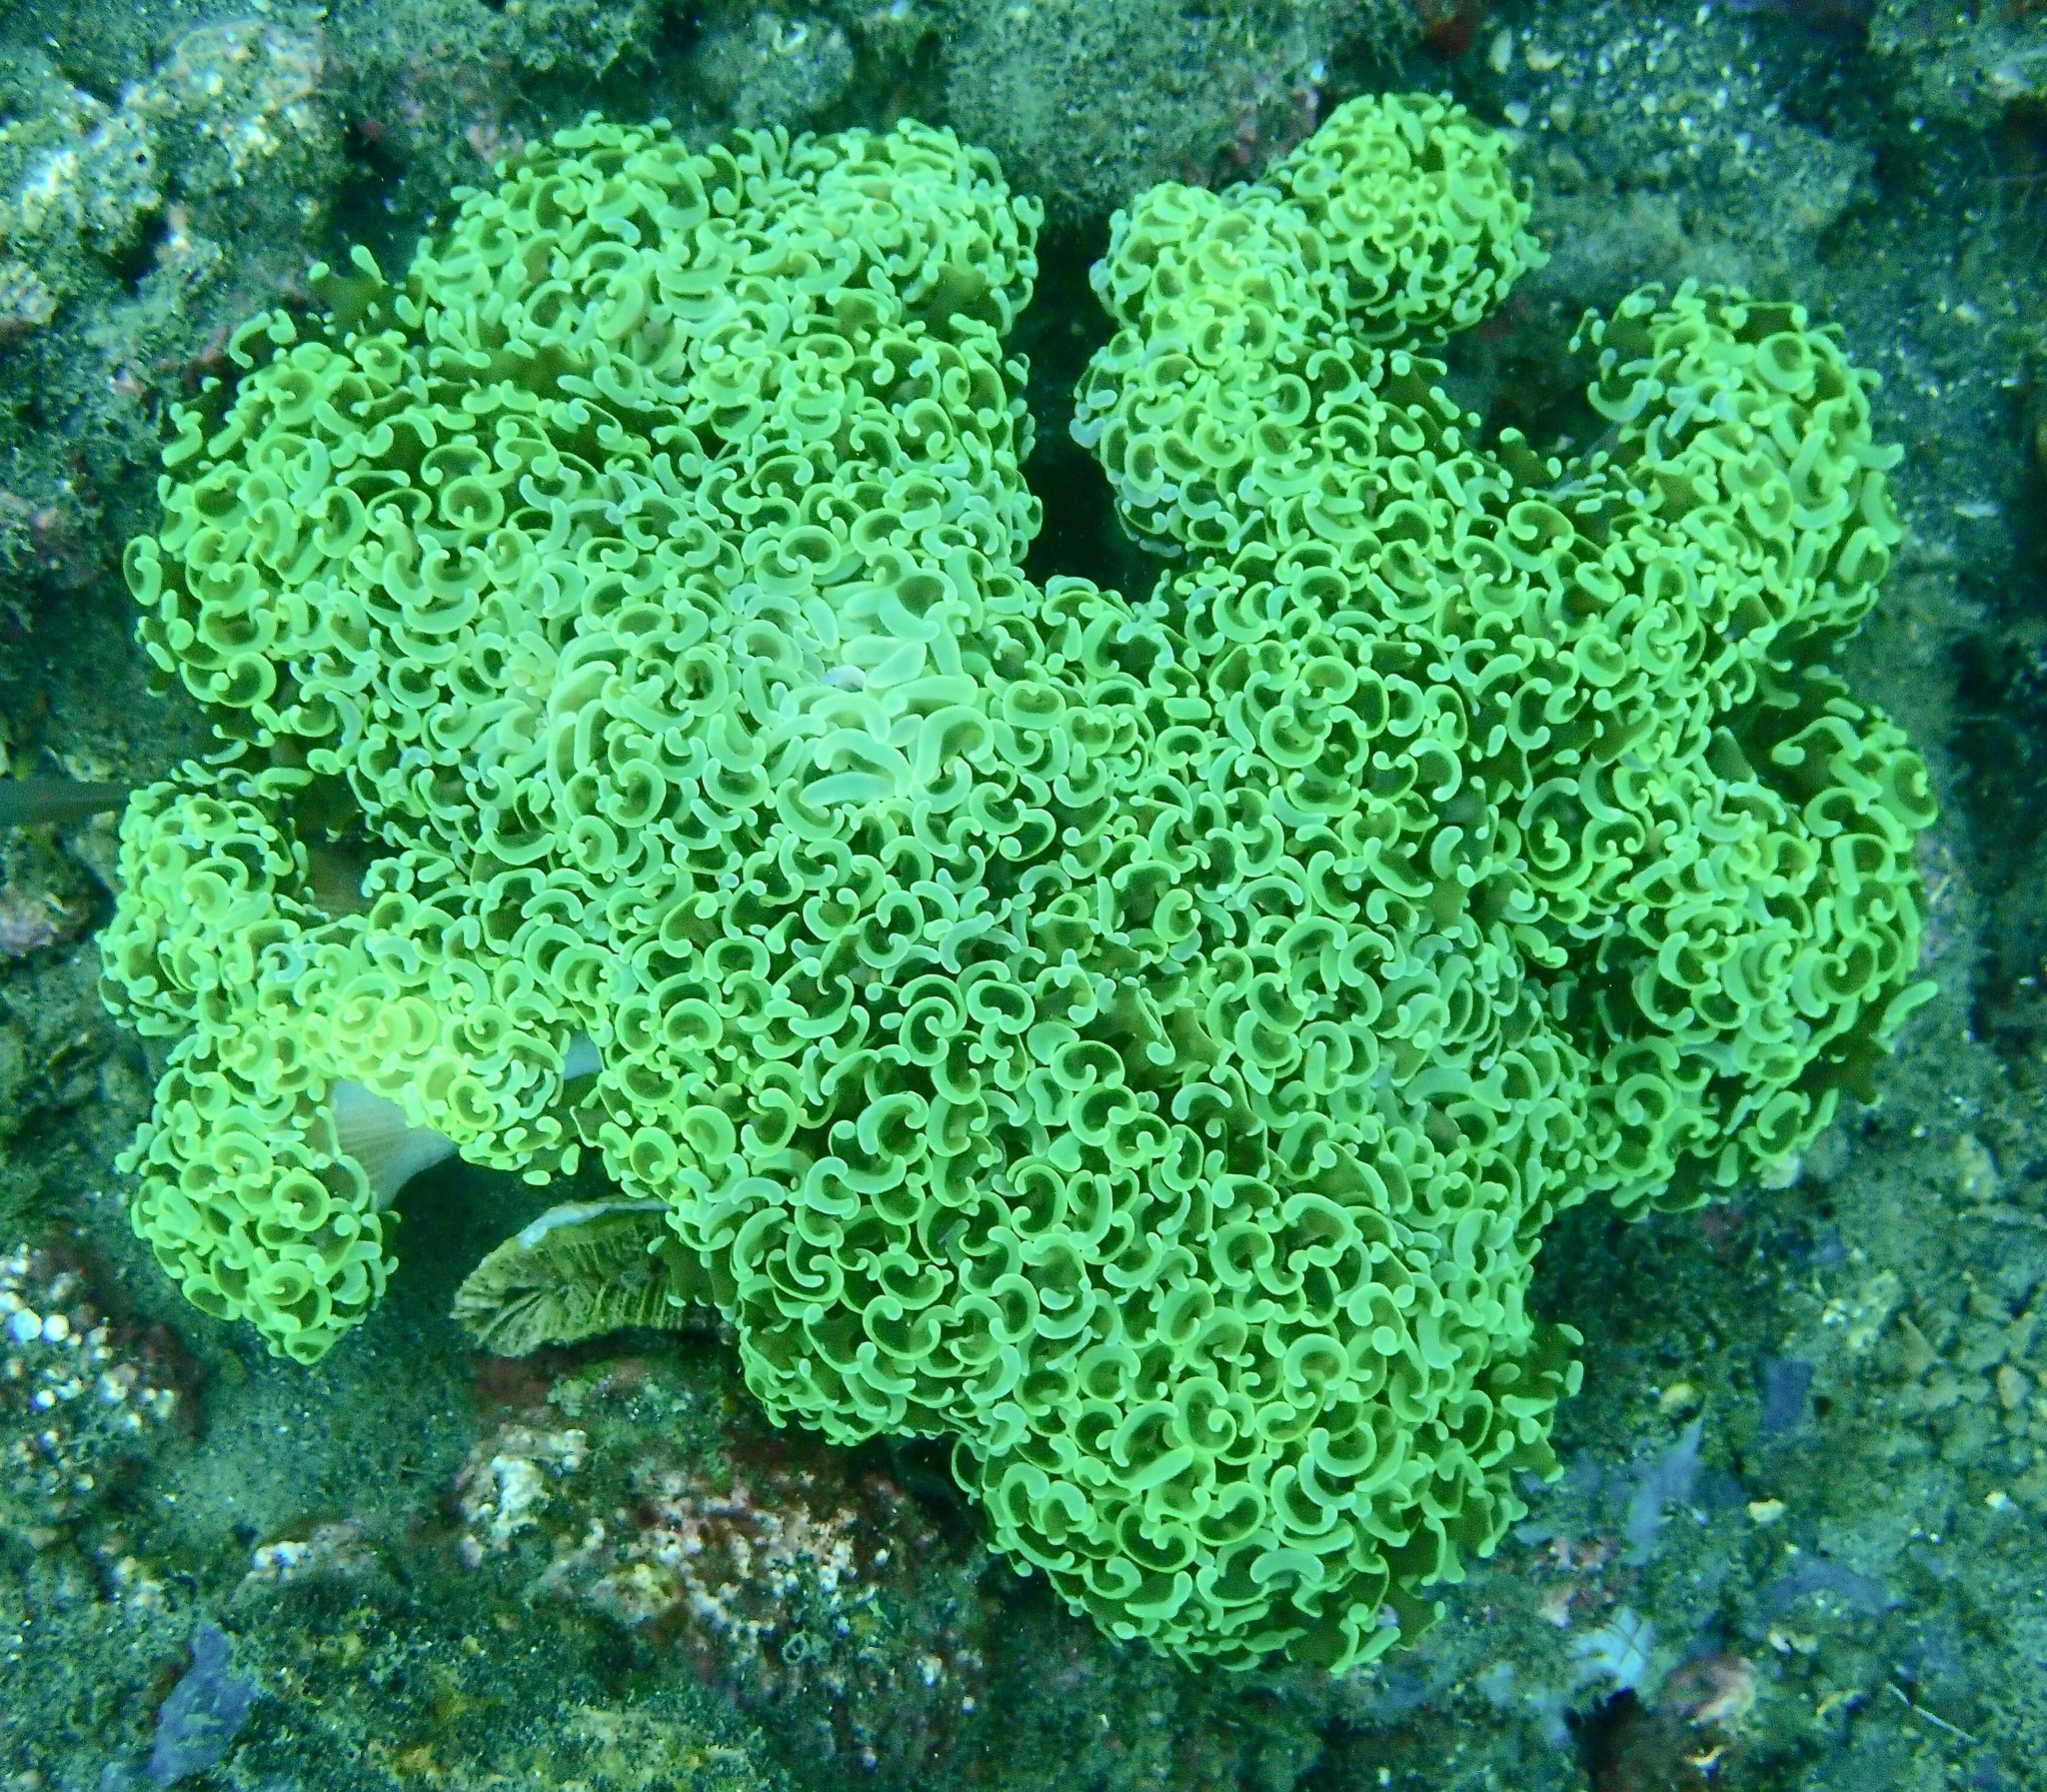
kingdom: Animalia
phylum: Cnidaria
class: Anthozoa
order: Scleractinia
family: Euphylliidae
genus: Fimbriaphyllia
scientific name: Fimbriaphyllia ancora
